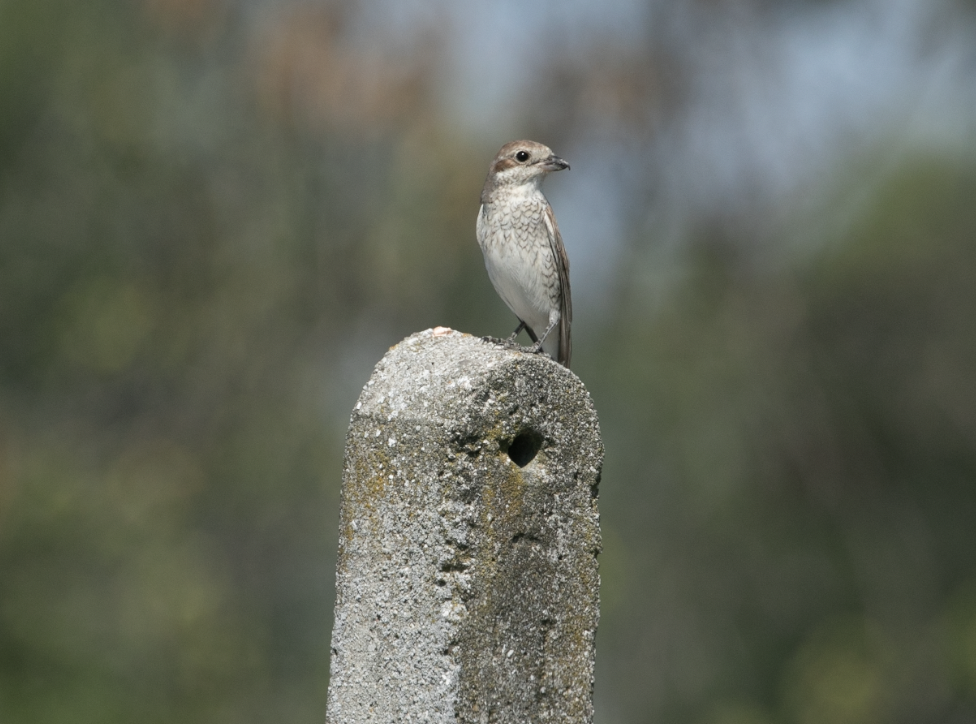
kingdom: Animalia
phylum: Chordata
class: Aves
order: Passeriformes
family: Laniidae
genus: Lanius
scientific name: Lanius collurio
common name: Red-backed shrike
